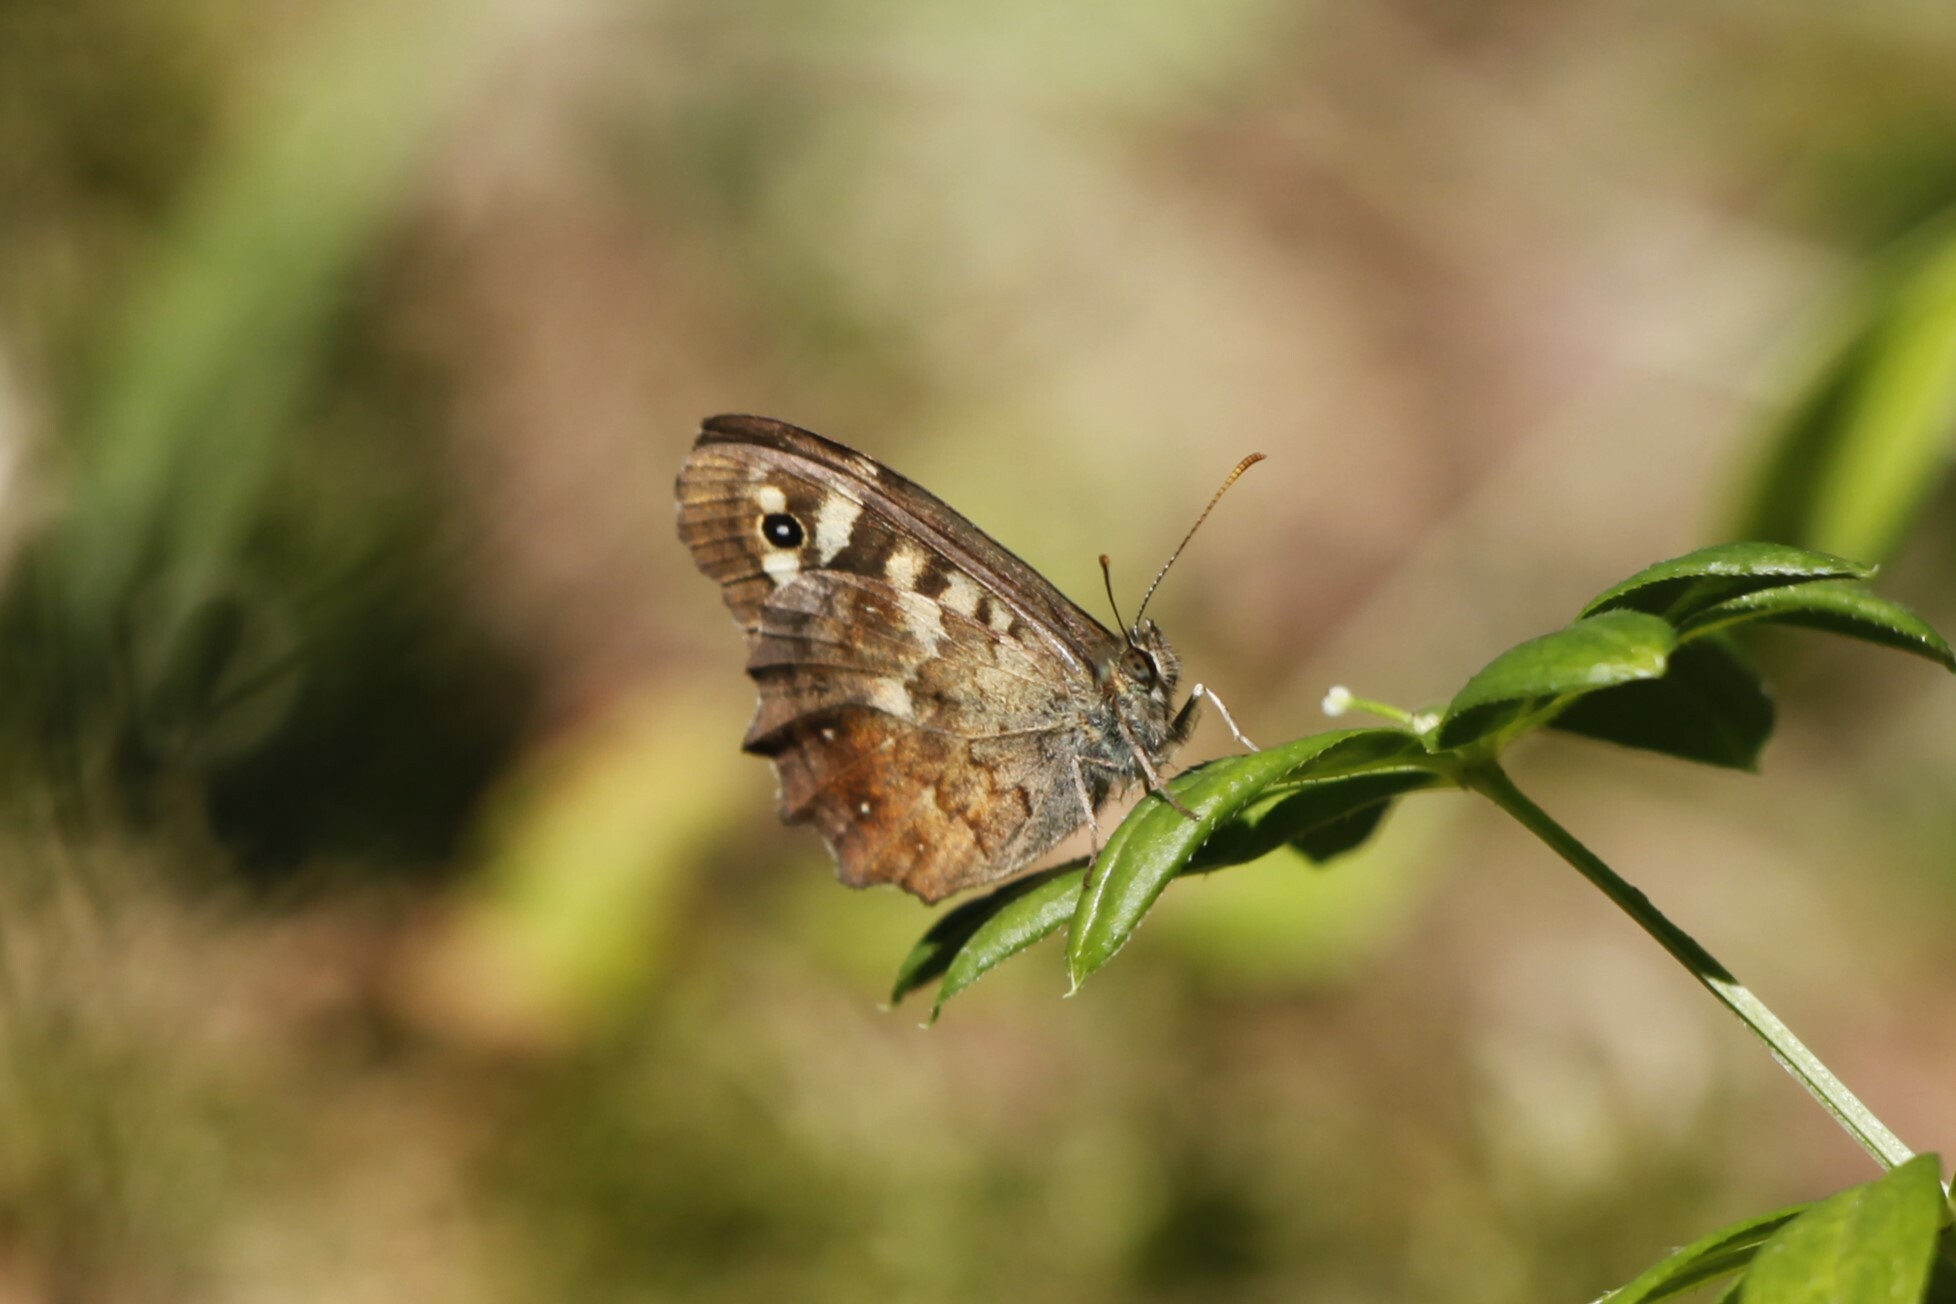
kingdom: Animalia
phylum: Arthropoda
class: Insecta
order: Lepidoptera
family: Nymphalidae
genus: Pararge
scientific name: Pararge aegeria
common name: Speckled wood
